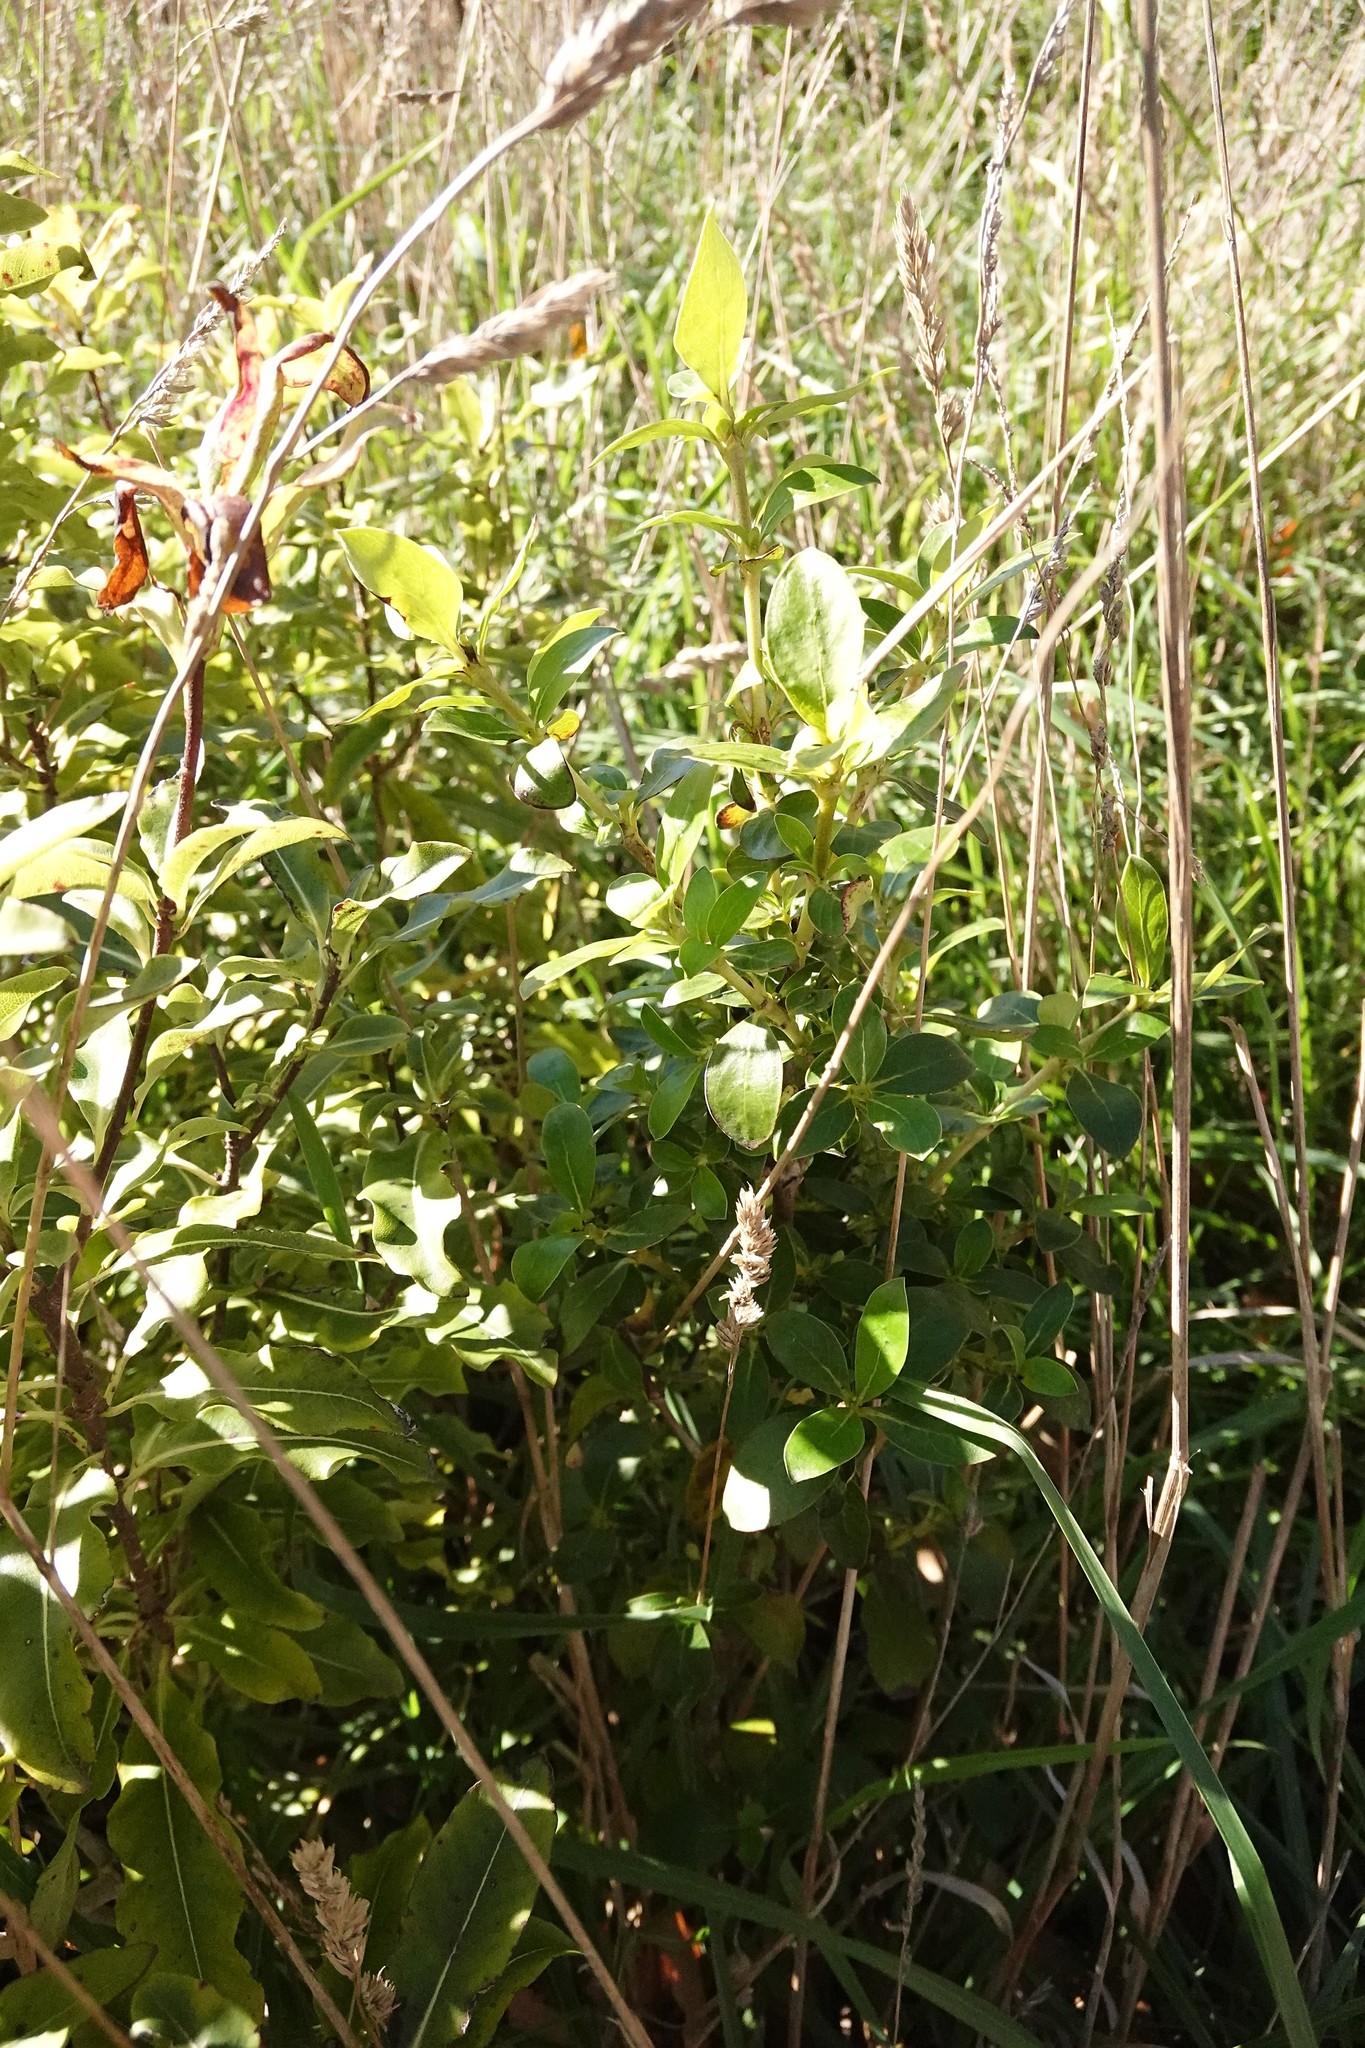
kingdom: Plantae
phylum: Tracheophyta
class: Magnoliopsida
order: Gentianales
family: Rubiaceae
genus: Coprosma
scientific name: Coprosma robusta
